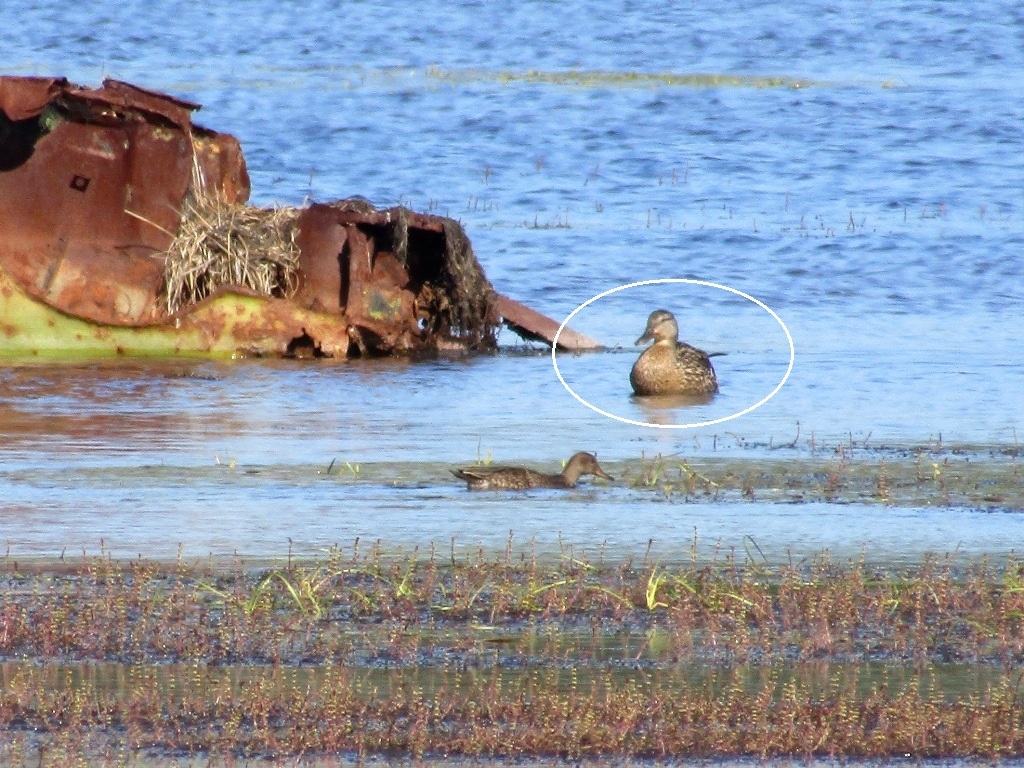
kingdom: Animalia
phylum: Chordata
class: Aves
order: Anseriformes
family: Anatidae
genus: Anas
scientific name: Anas platyrhynchos
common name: Mallard
